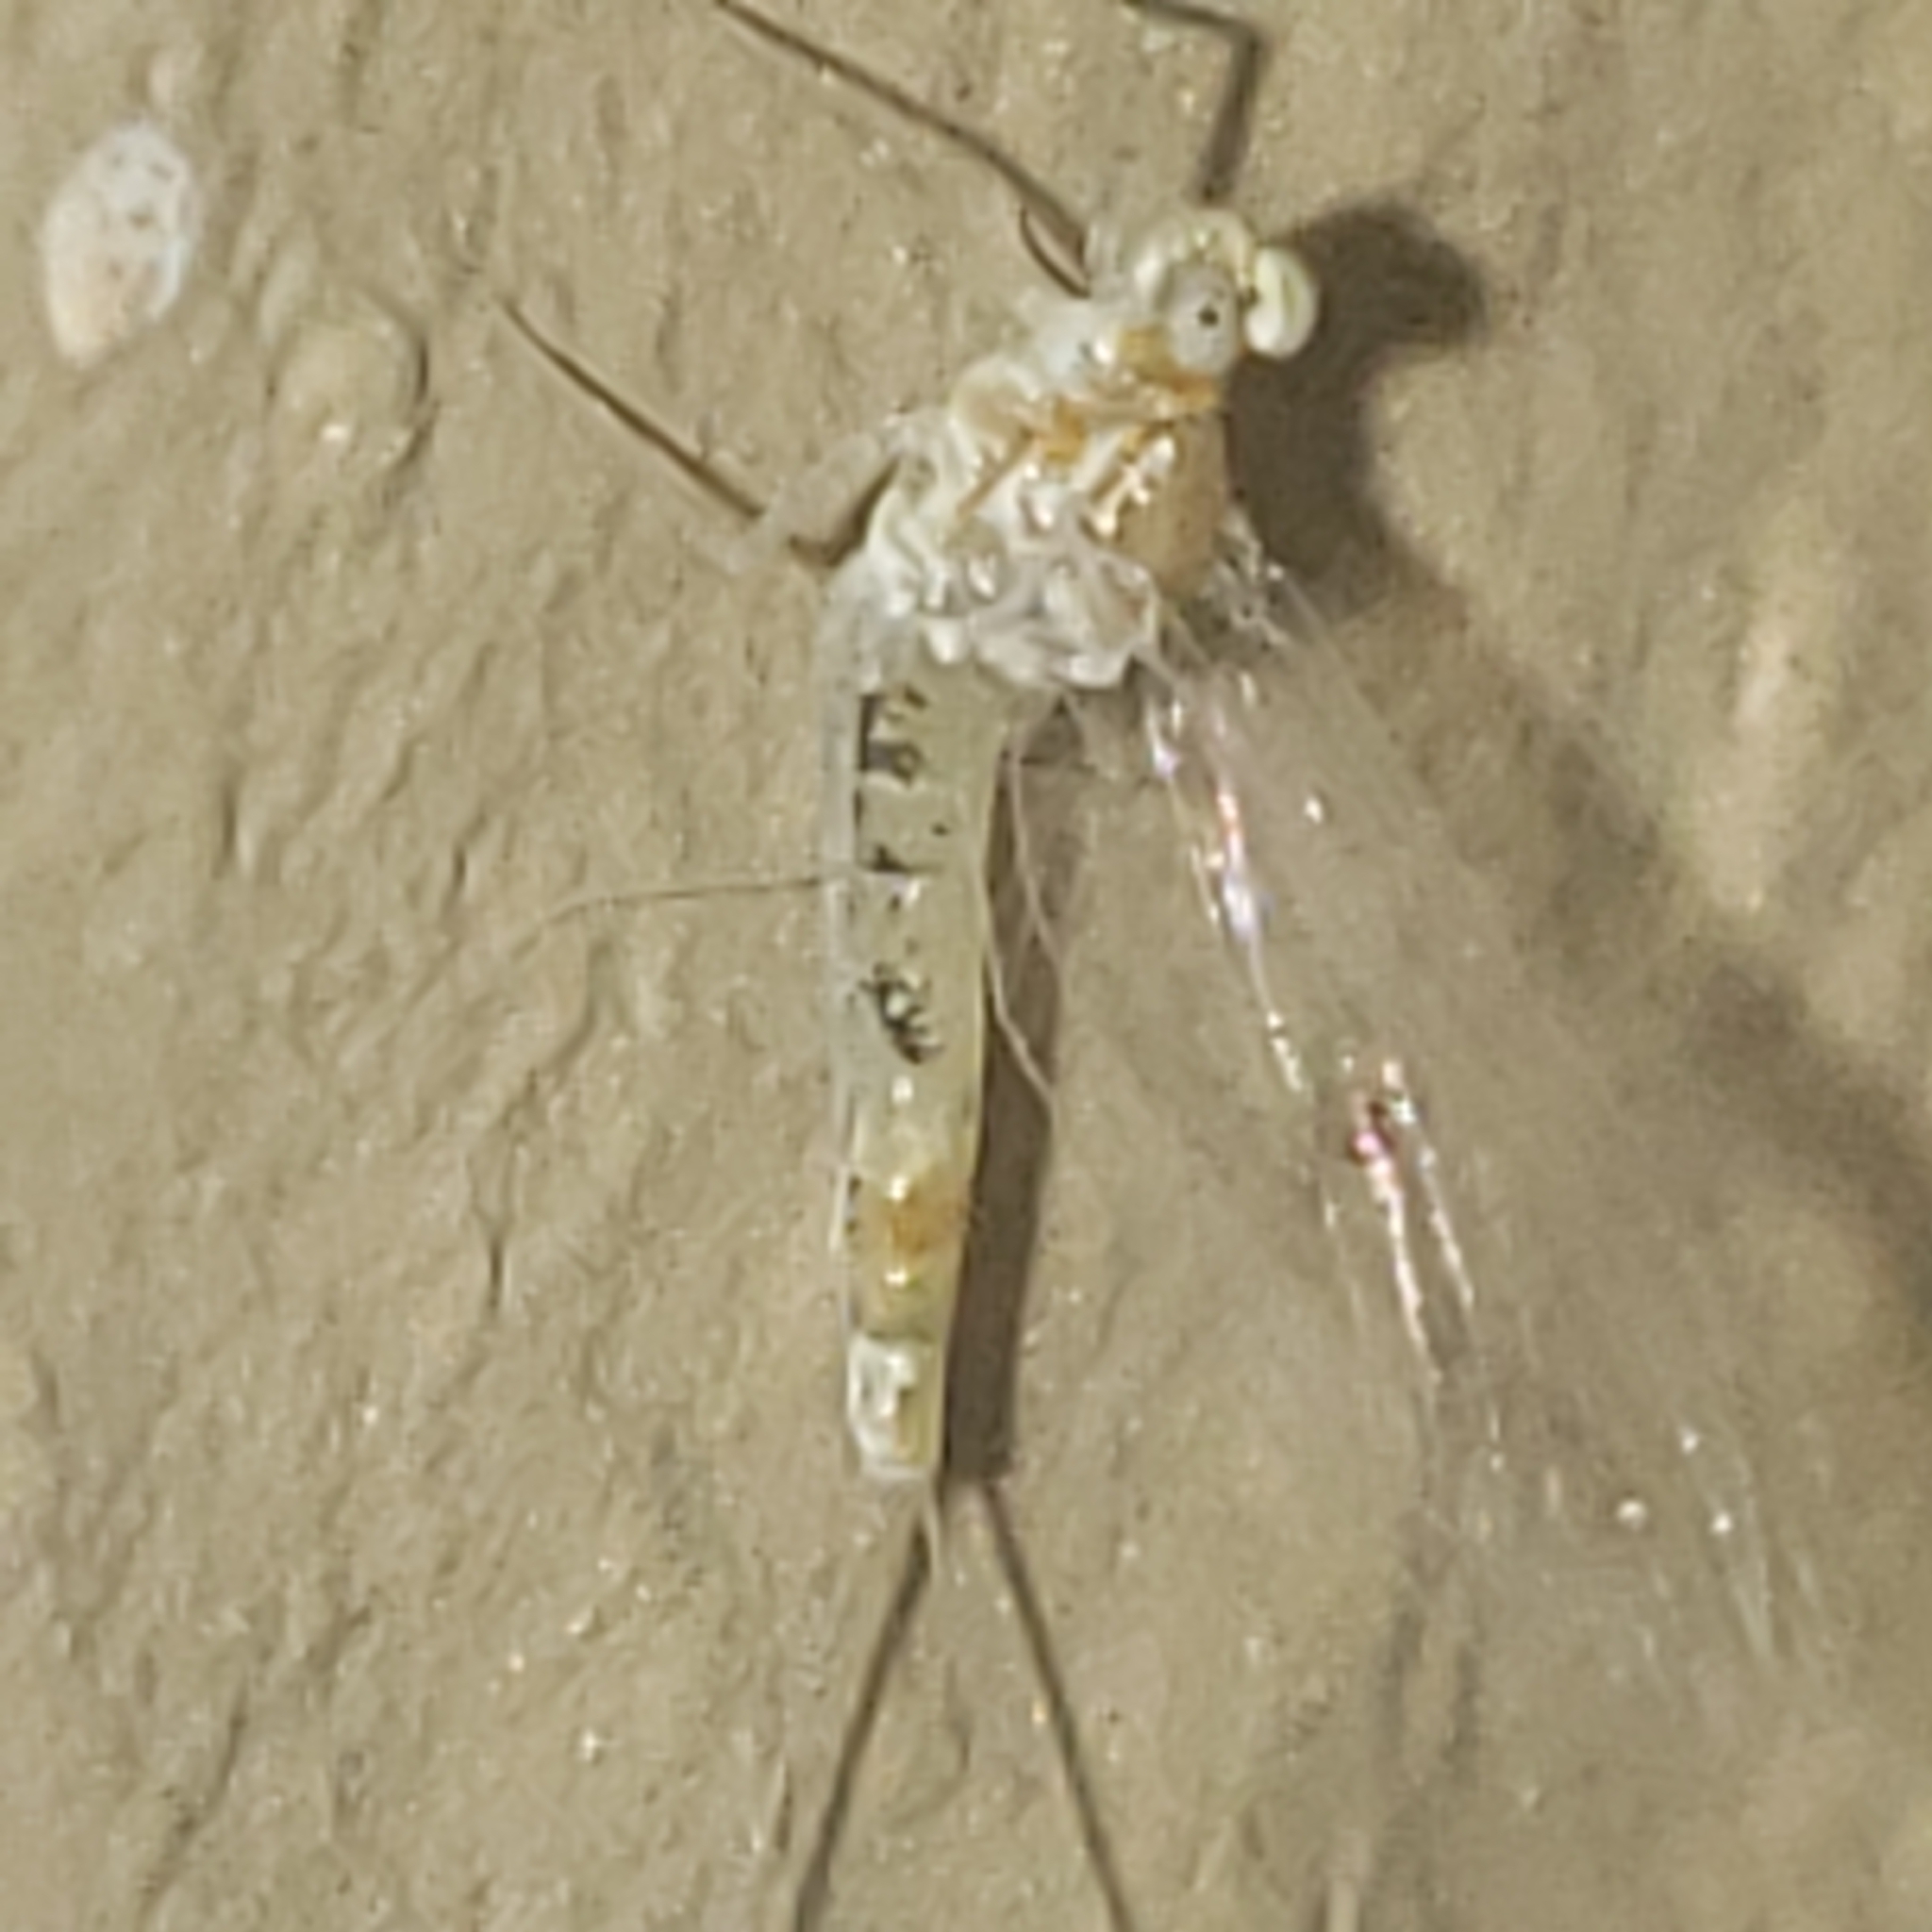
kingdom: Animalia
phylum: Arthropoda
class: Insecta
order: Ephemeroptera
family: Heptageniidae
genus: Leucrocuta
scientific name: Leucrocuta hebe
